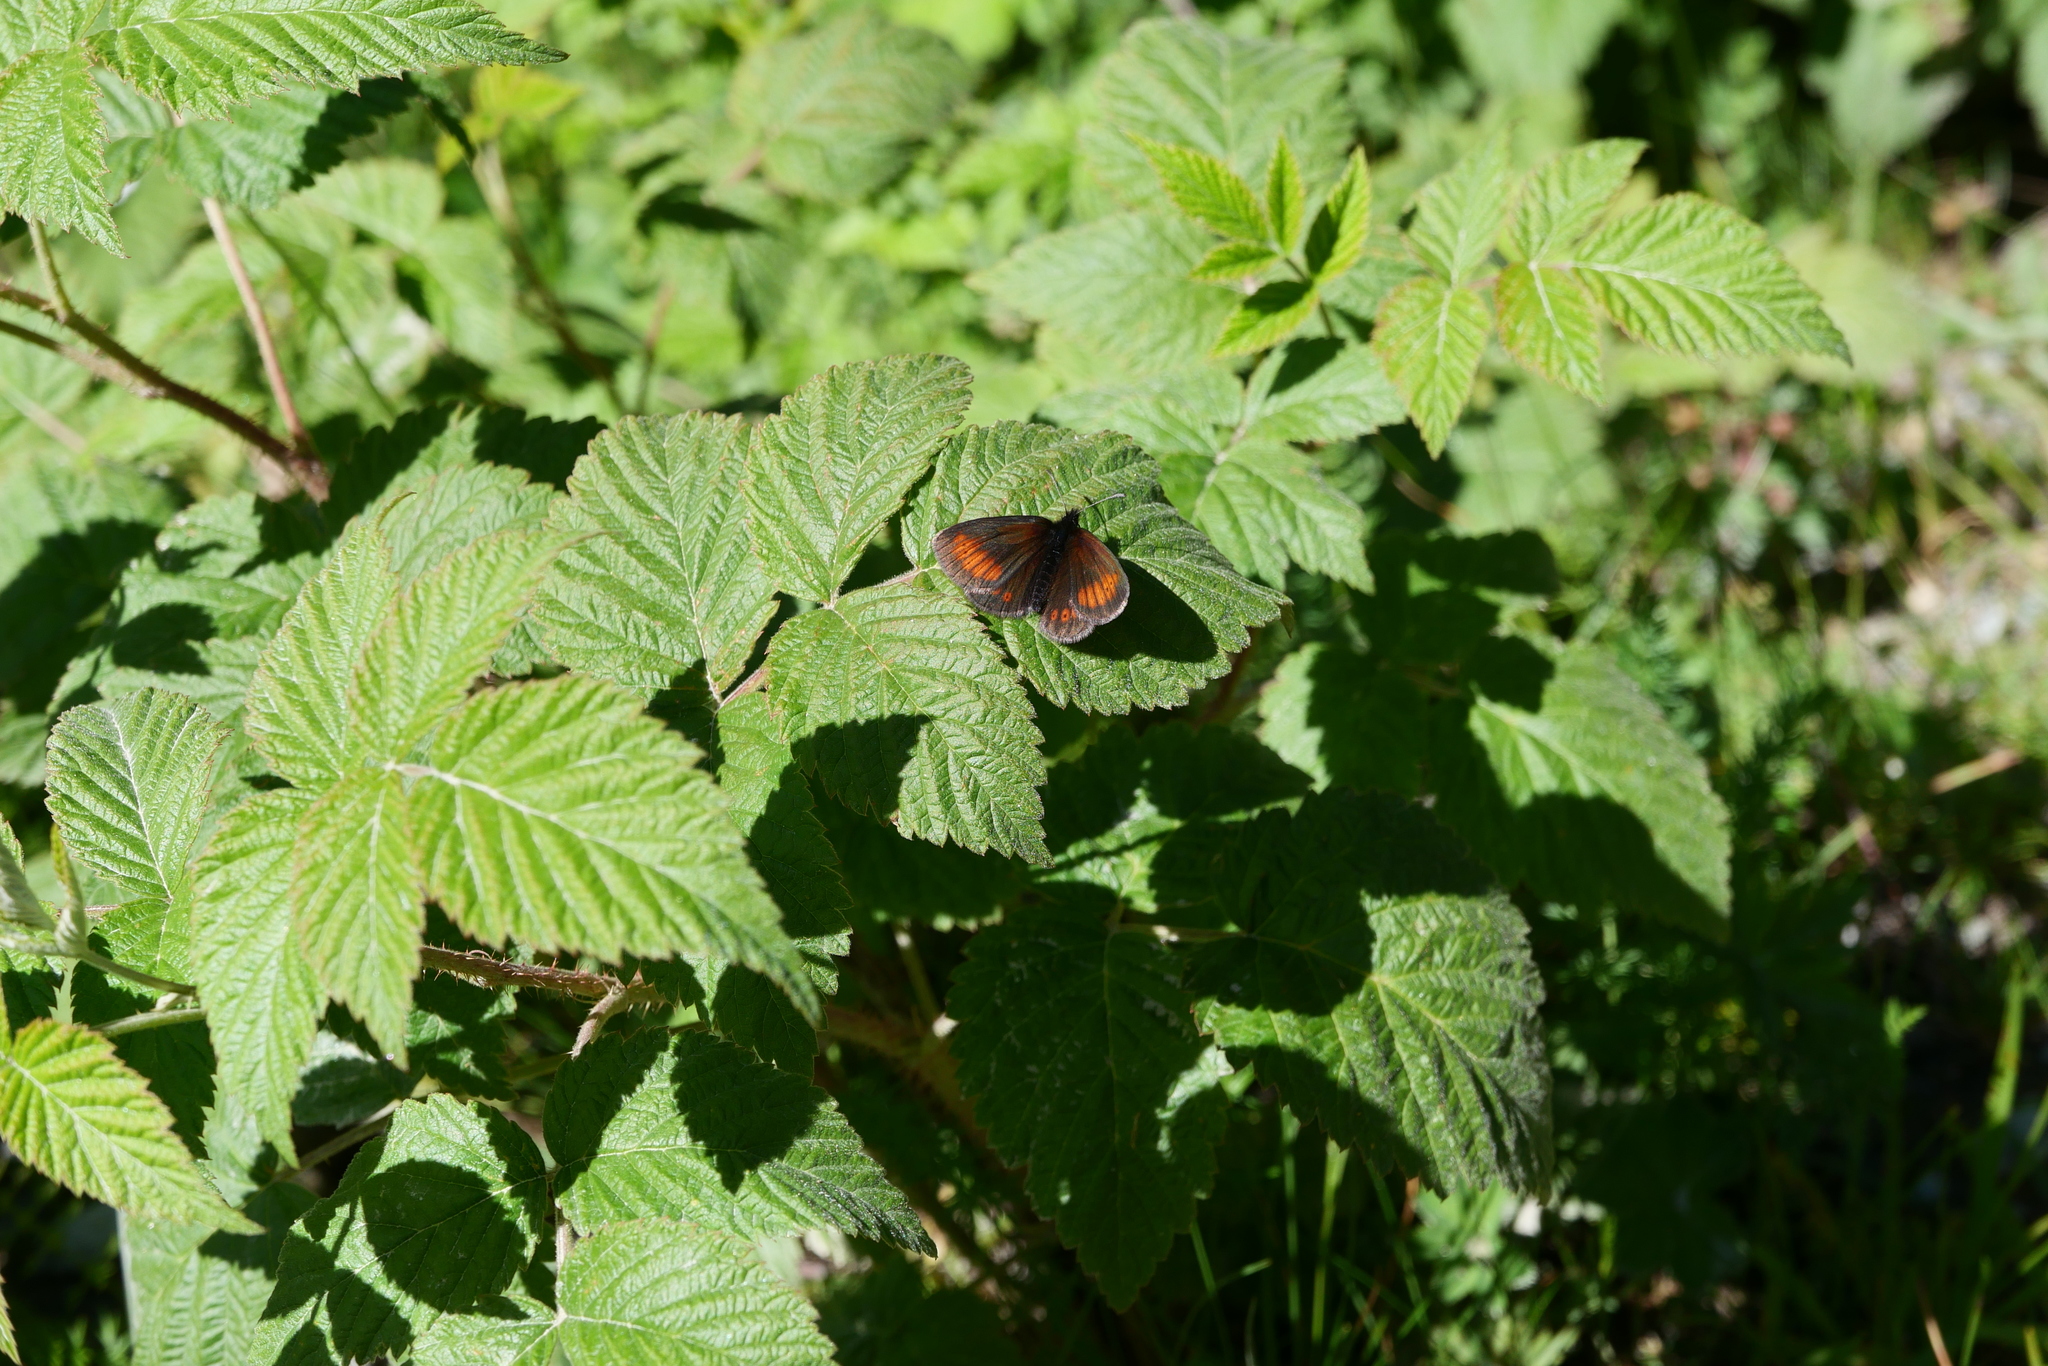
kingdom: Animalia
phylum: Arthropoda
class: Insecta
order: Lepidoptera
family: Nymphalidae
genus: Erebia
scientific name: Erebia melampus
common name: Lesser mountain ringlet
